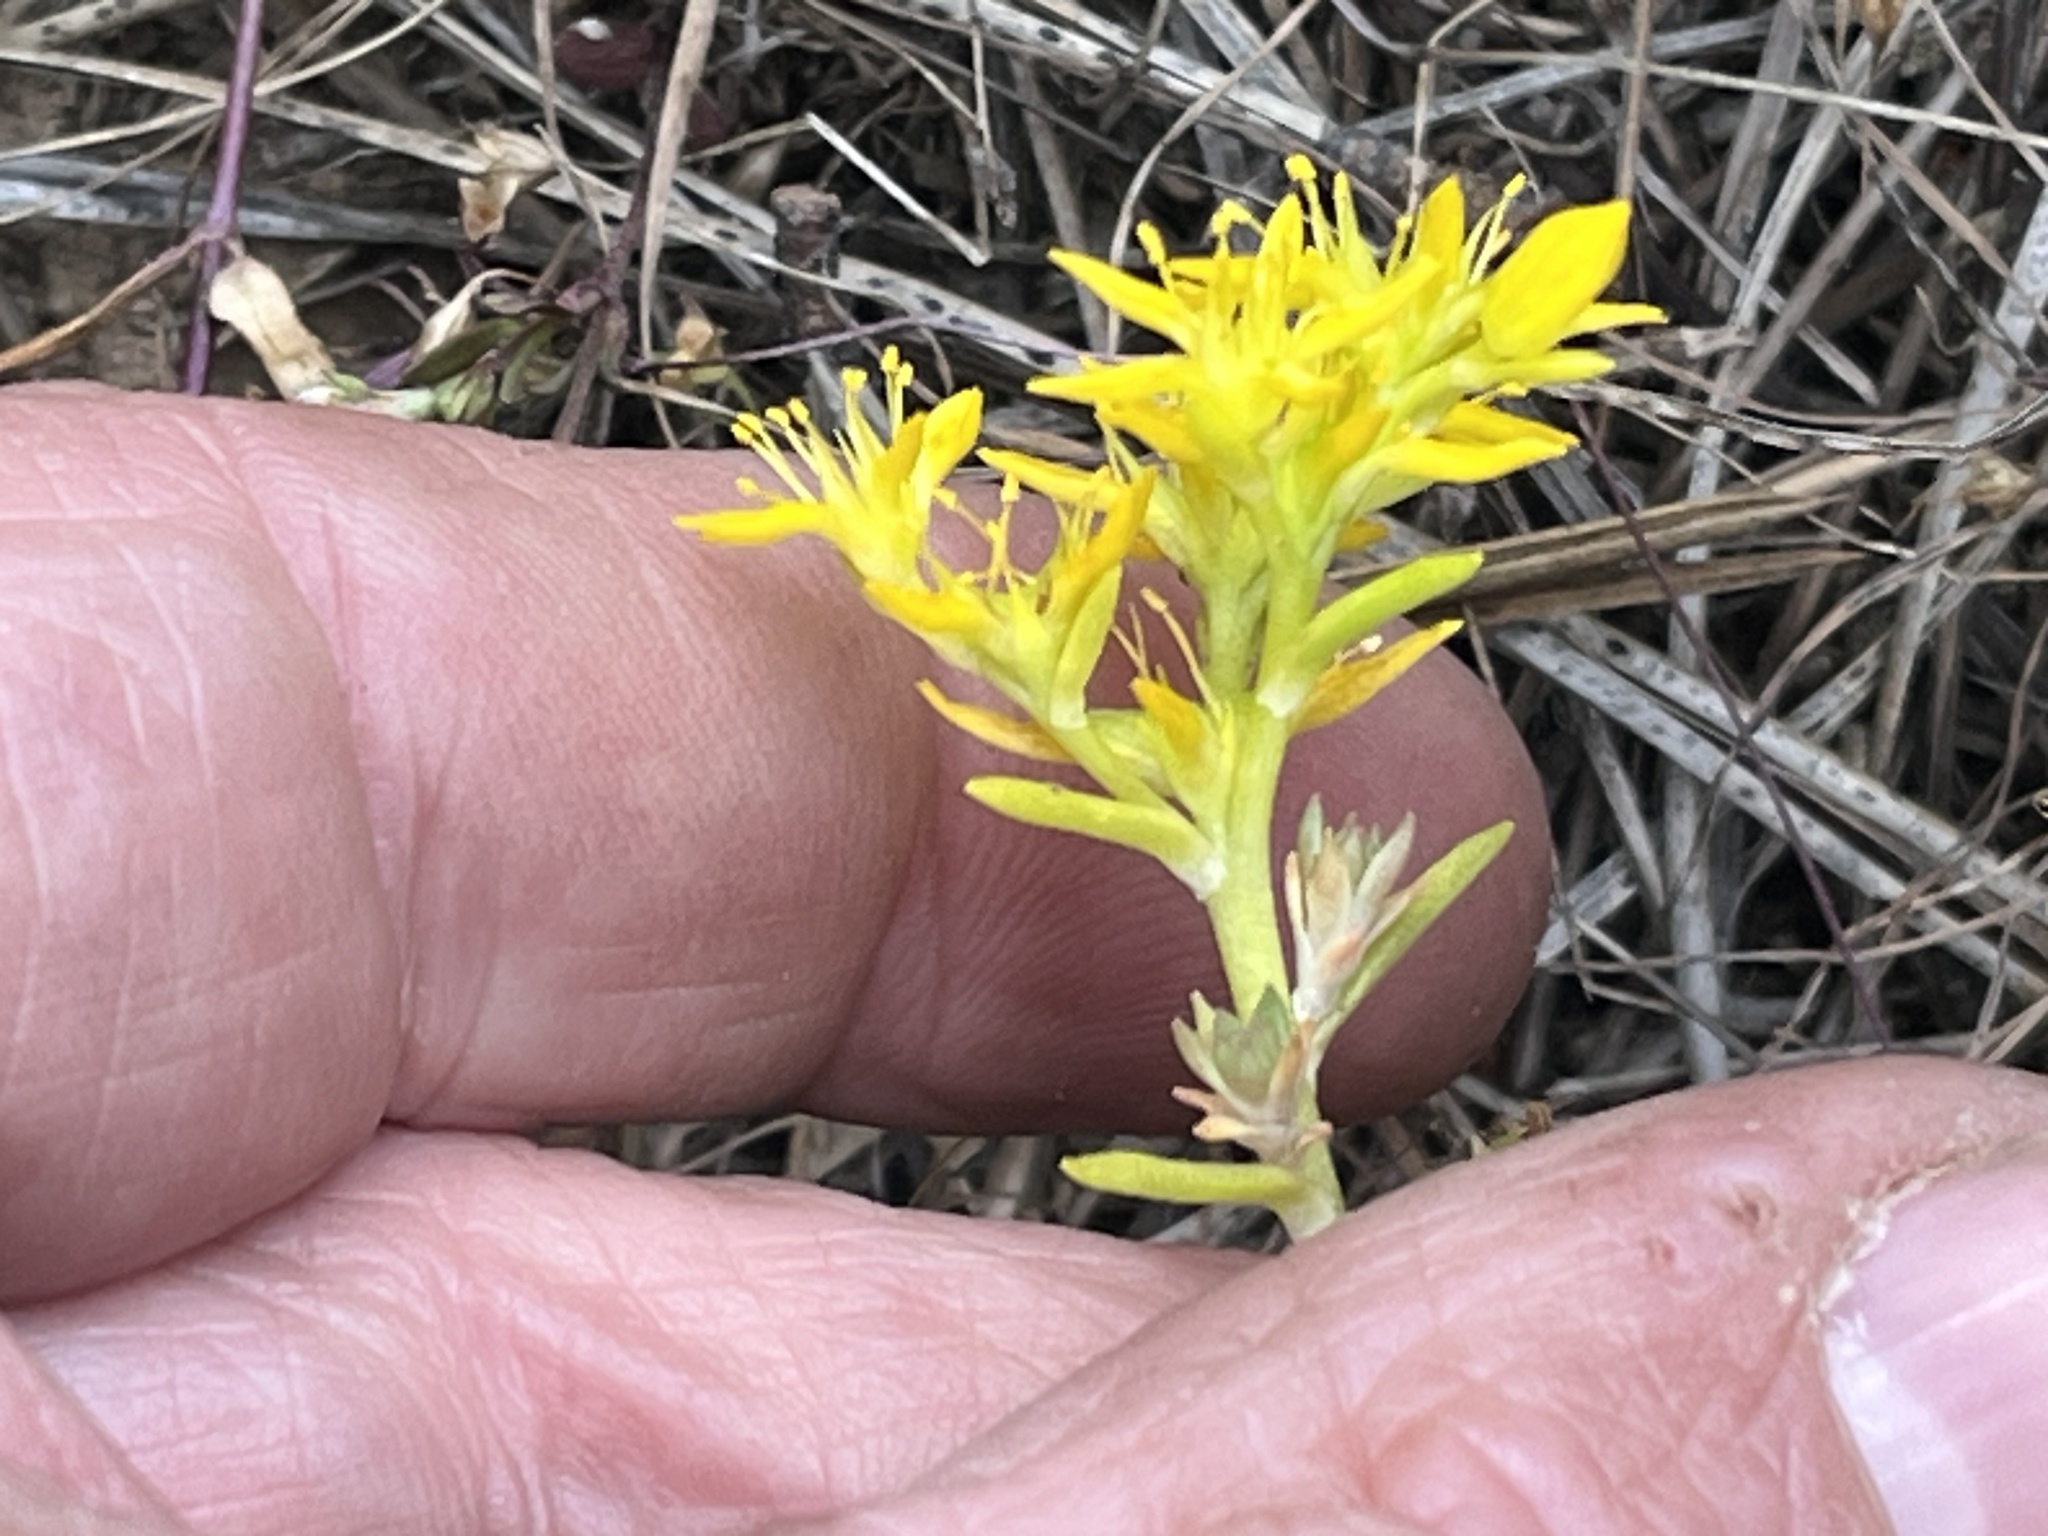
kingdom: Plantae
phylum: Tracheophyta
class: Magnoliopsida
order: Saxifragales
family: Crassulaceae
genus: Sedum
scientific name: Sedum stenopetalum
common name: Narrow-petaled stonecrop
